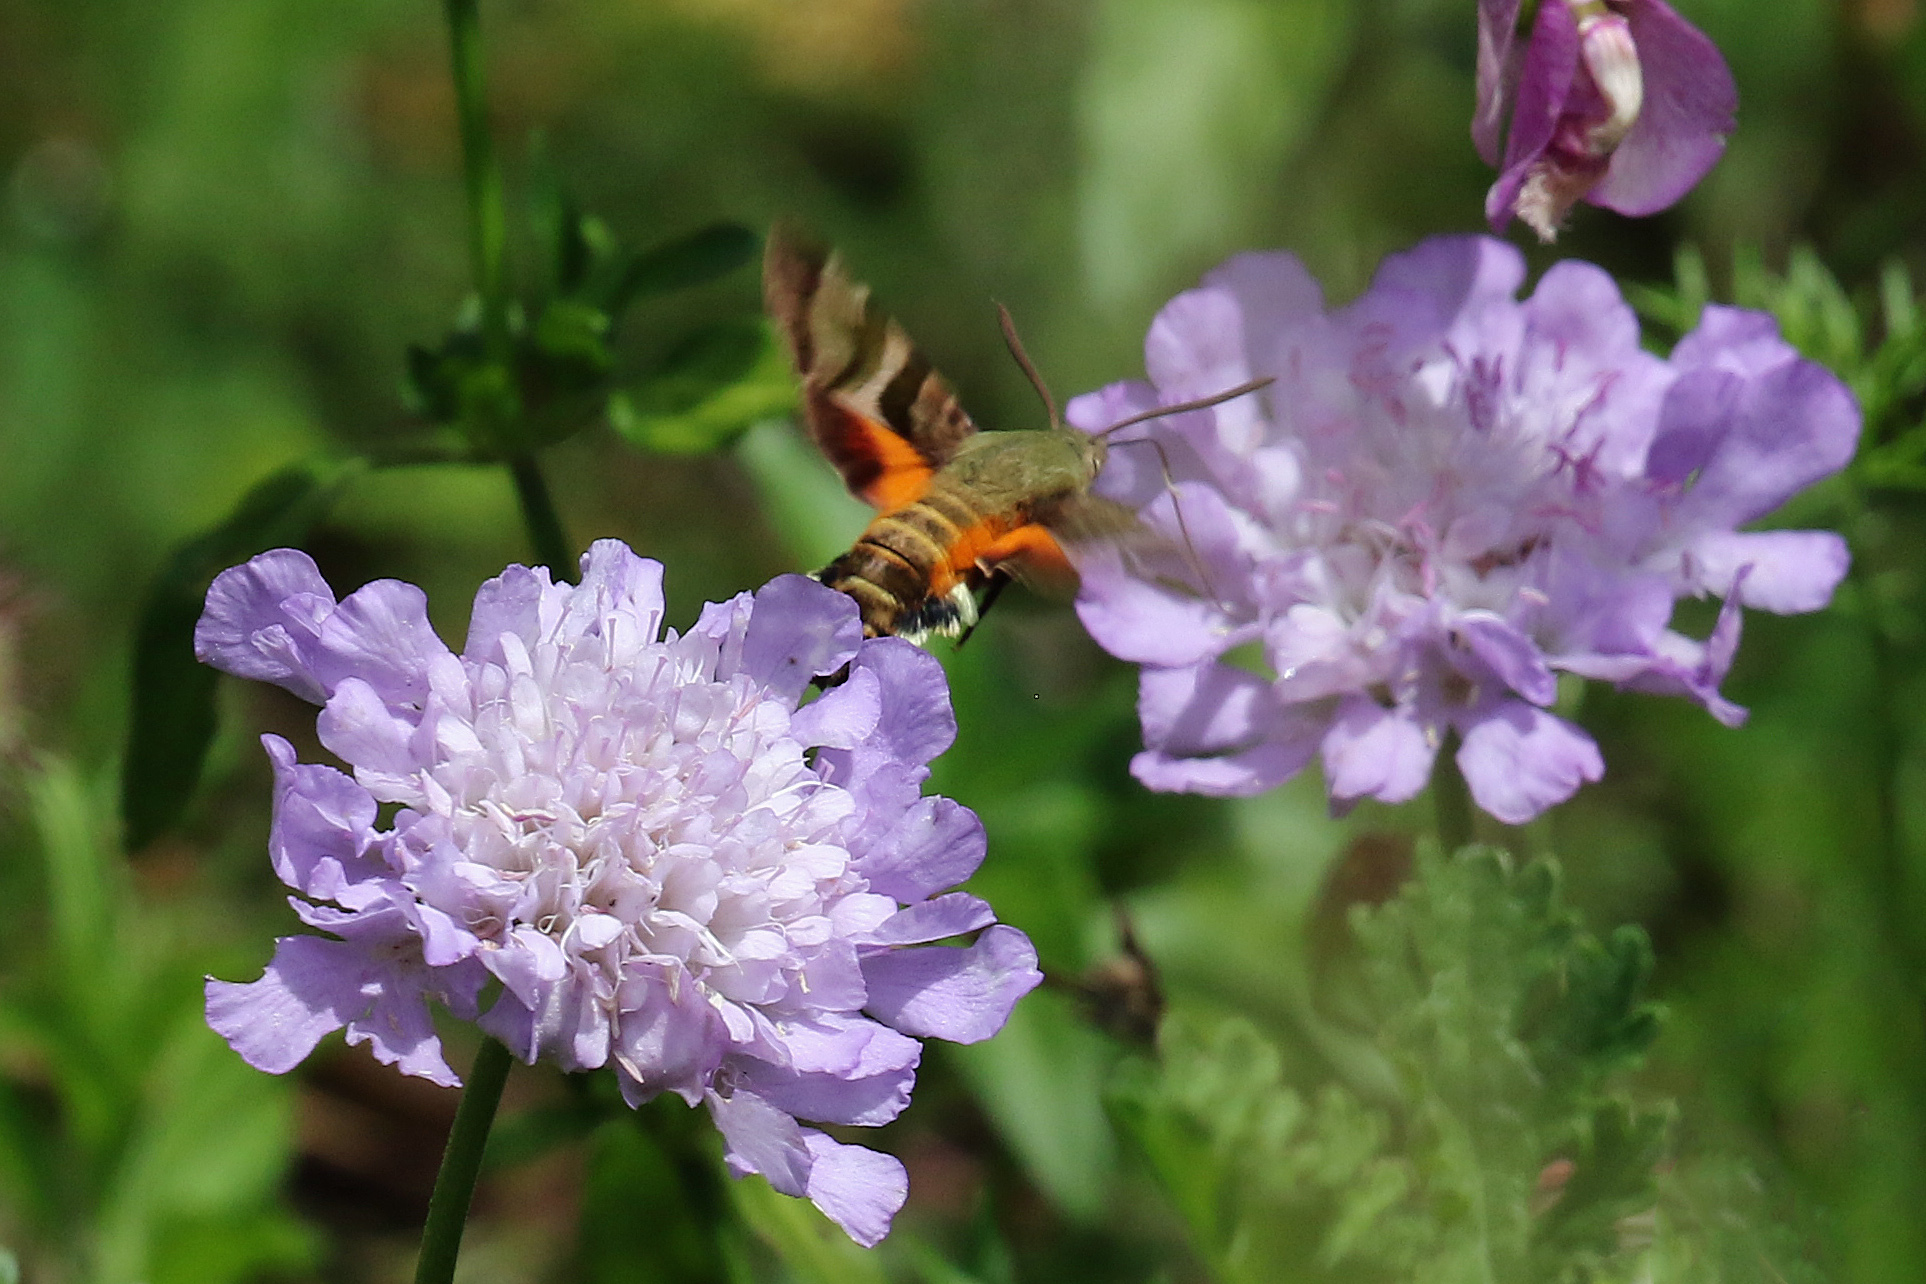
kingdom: Animalia
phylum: Arthropoda
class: Insecta
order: Lepidoptera
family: Sphingidae
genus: Macroglossum
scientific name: Macroglossum trochilus
